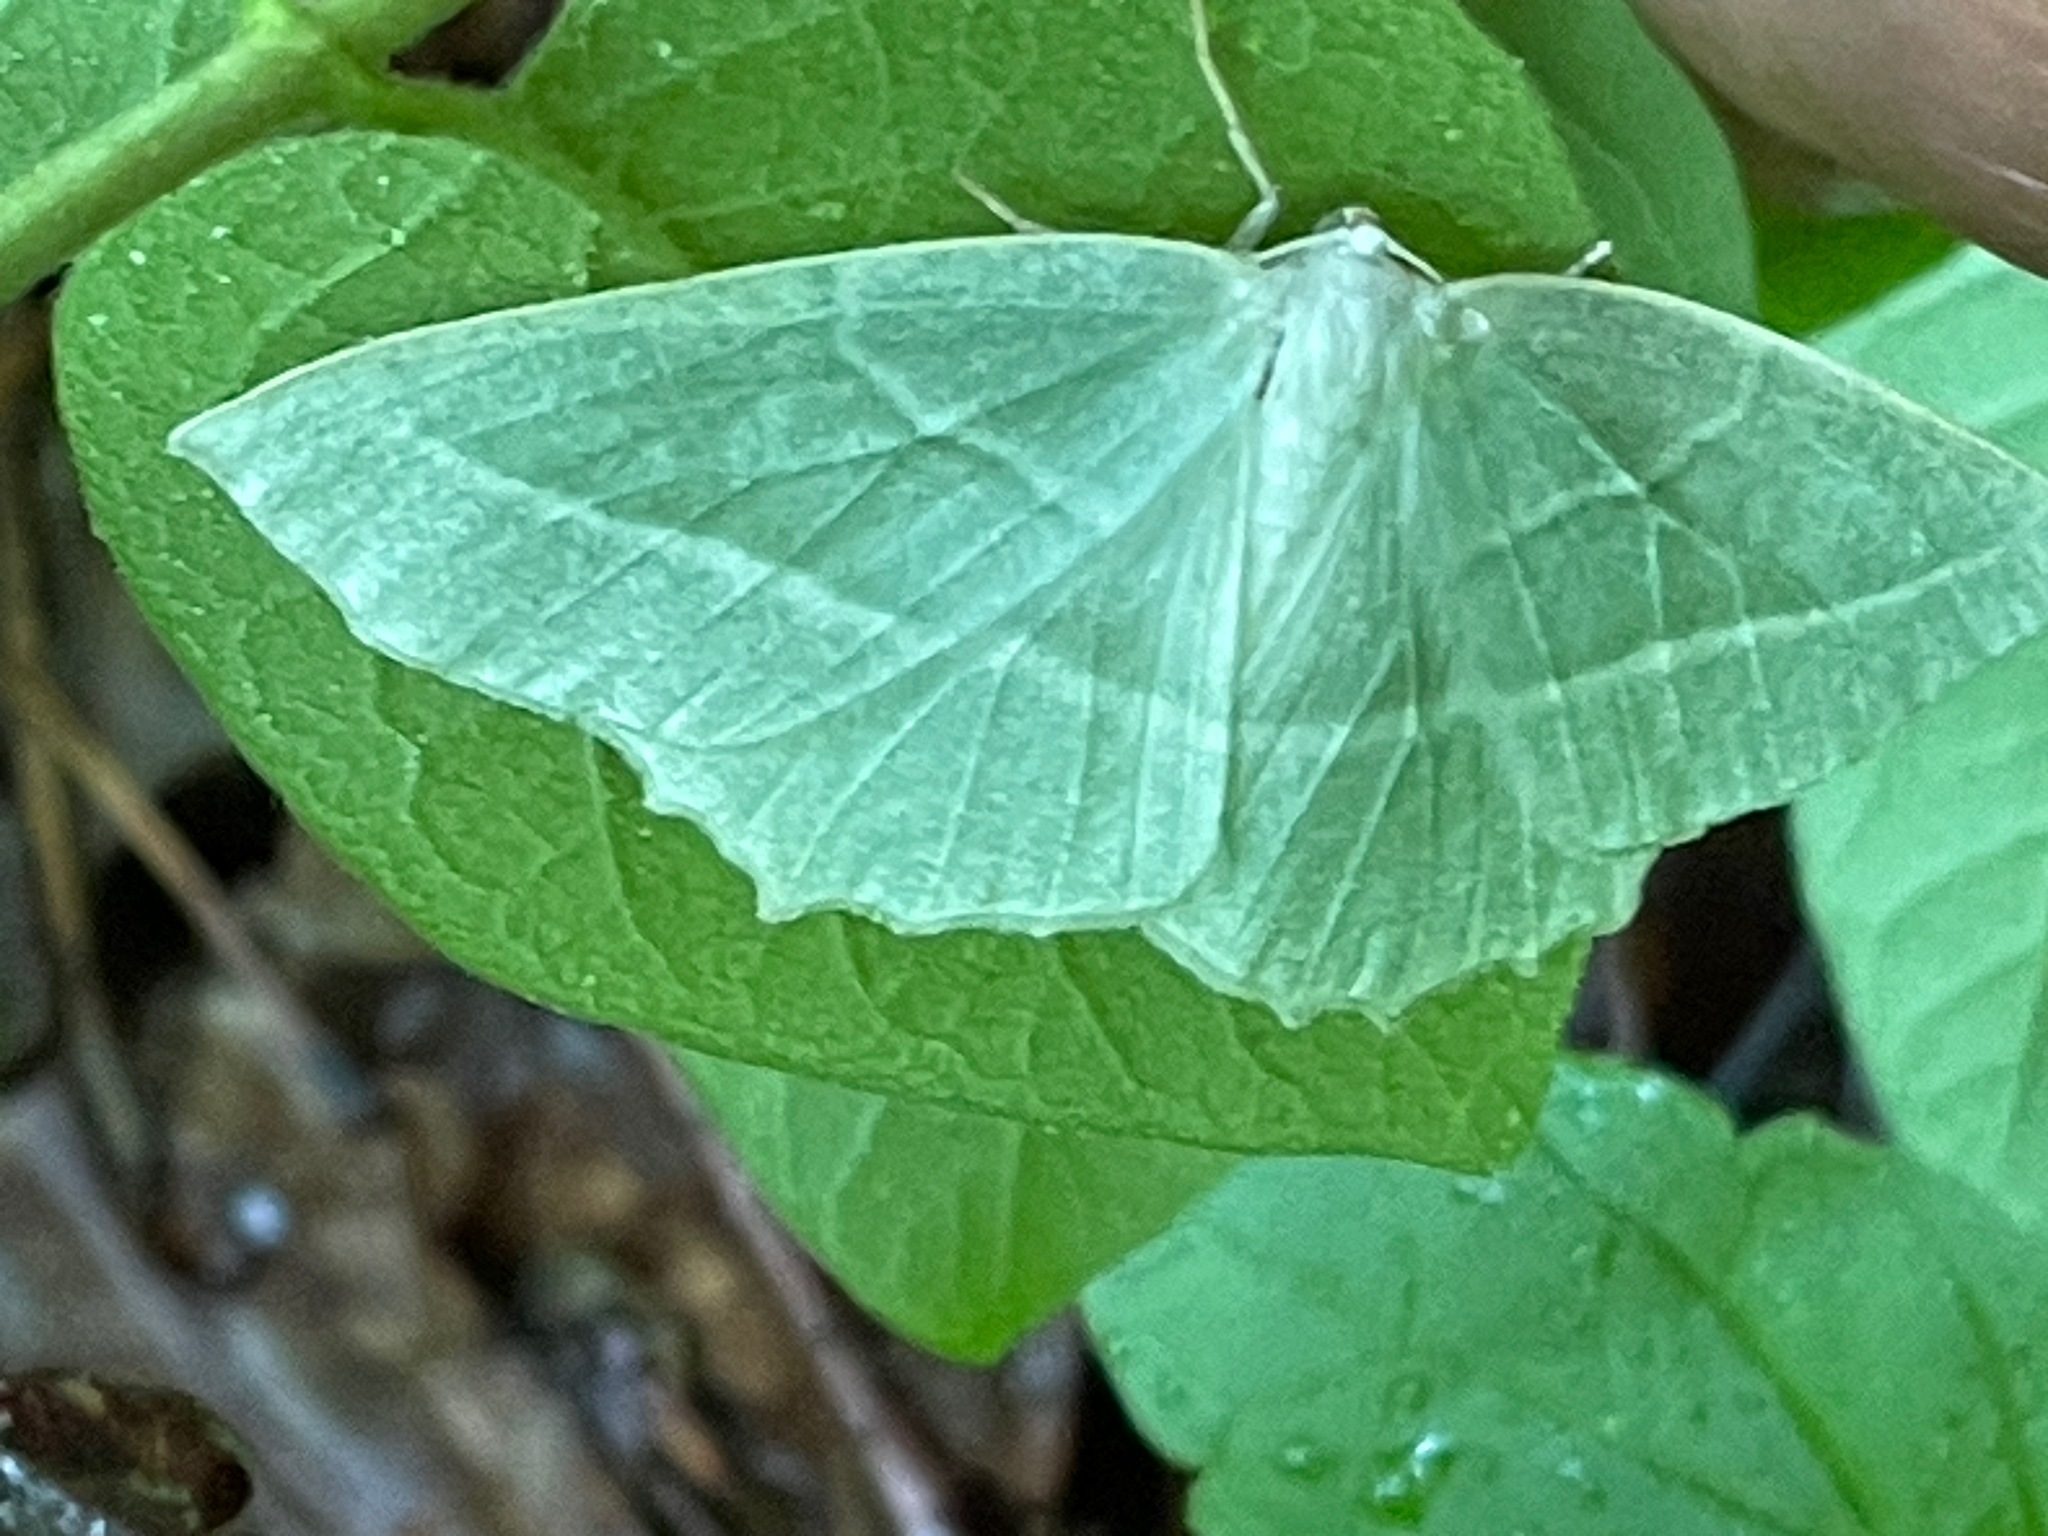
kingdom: Animalia
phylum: Arthropoda
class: Insecta
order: Lepidoptera
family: Geometridae
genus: Campaea
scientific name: Campaea perlata
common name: Fringed looper
